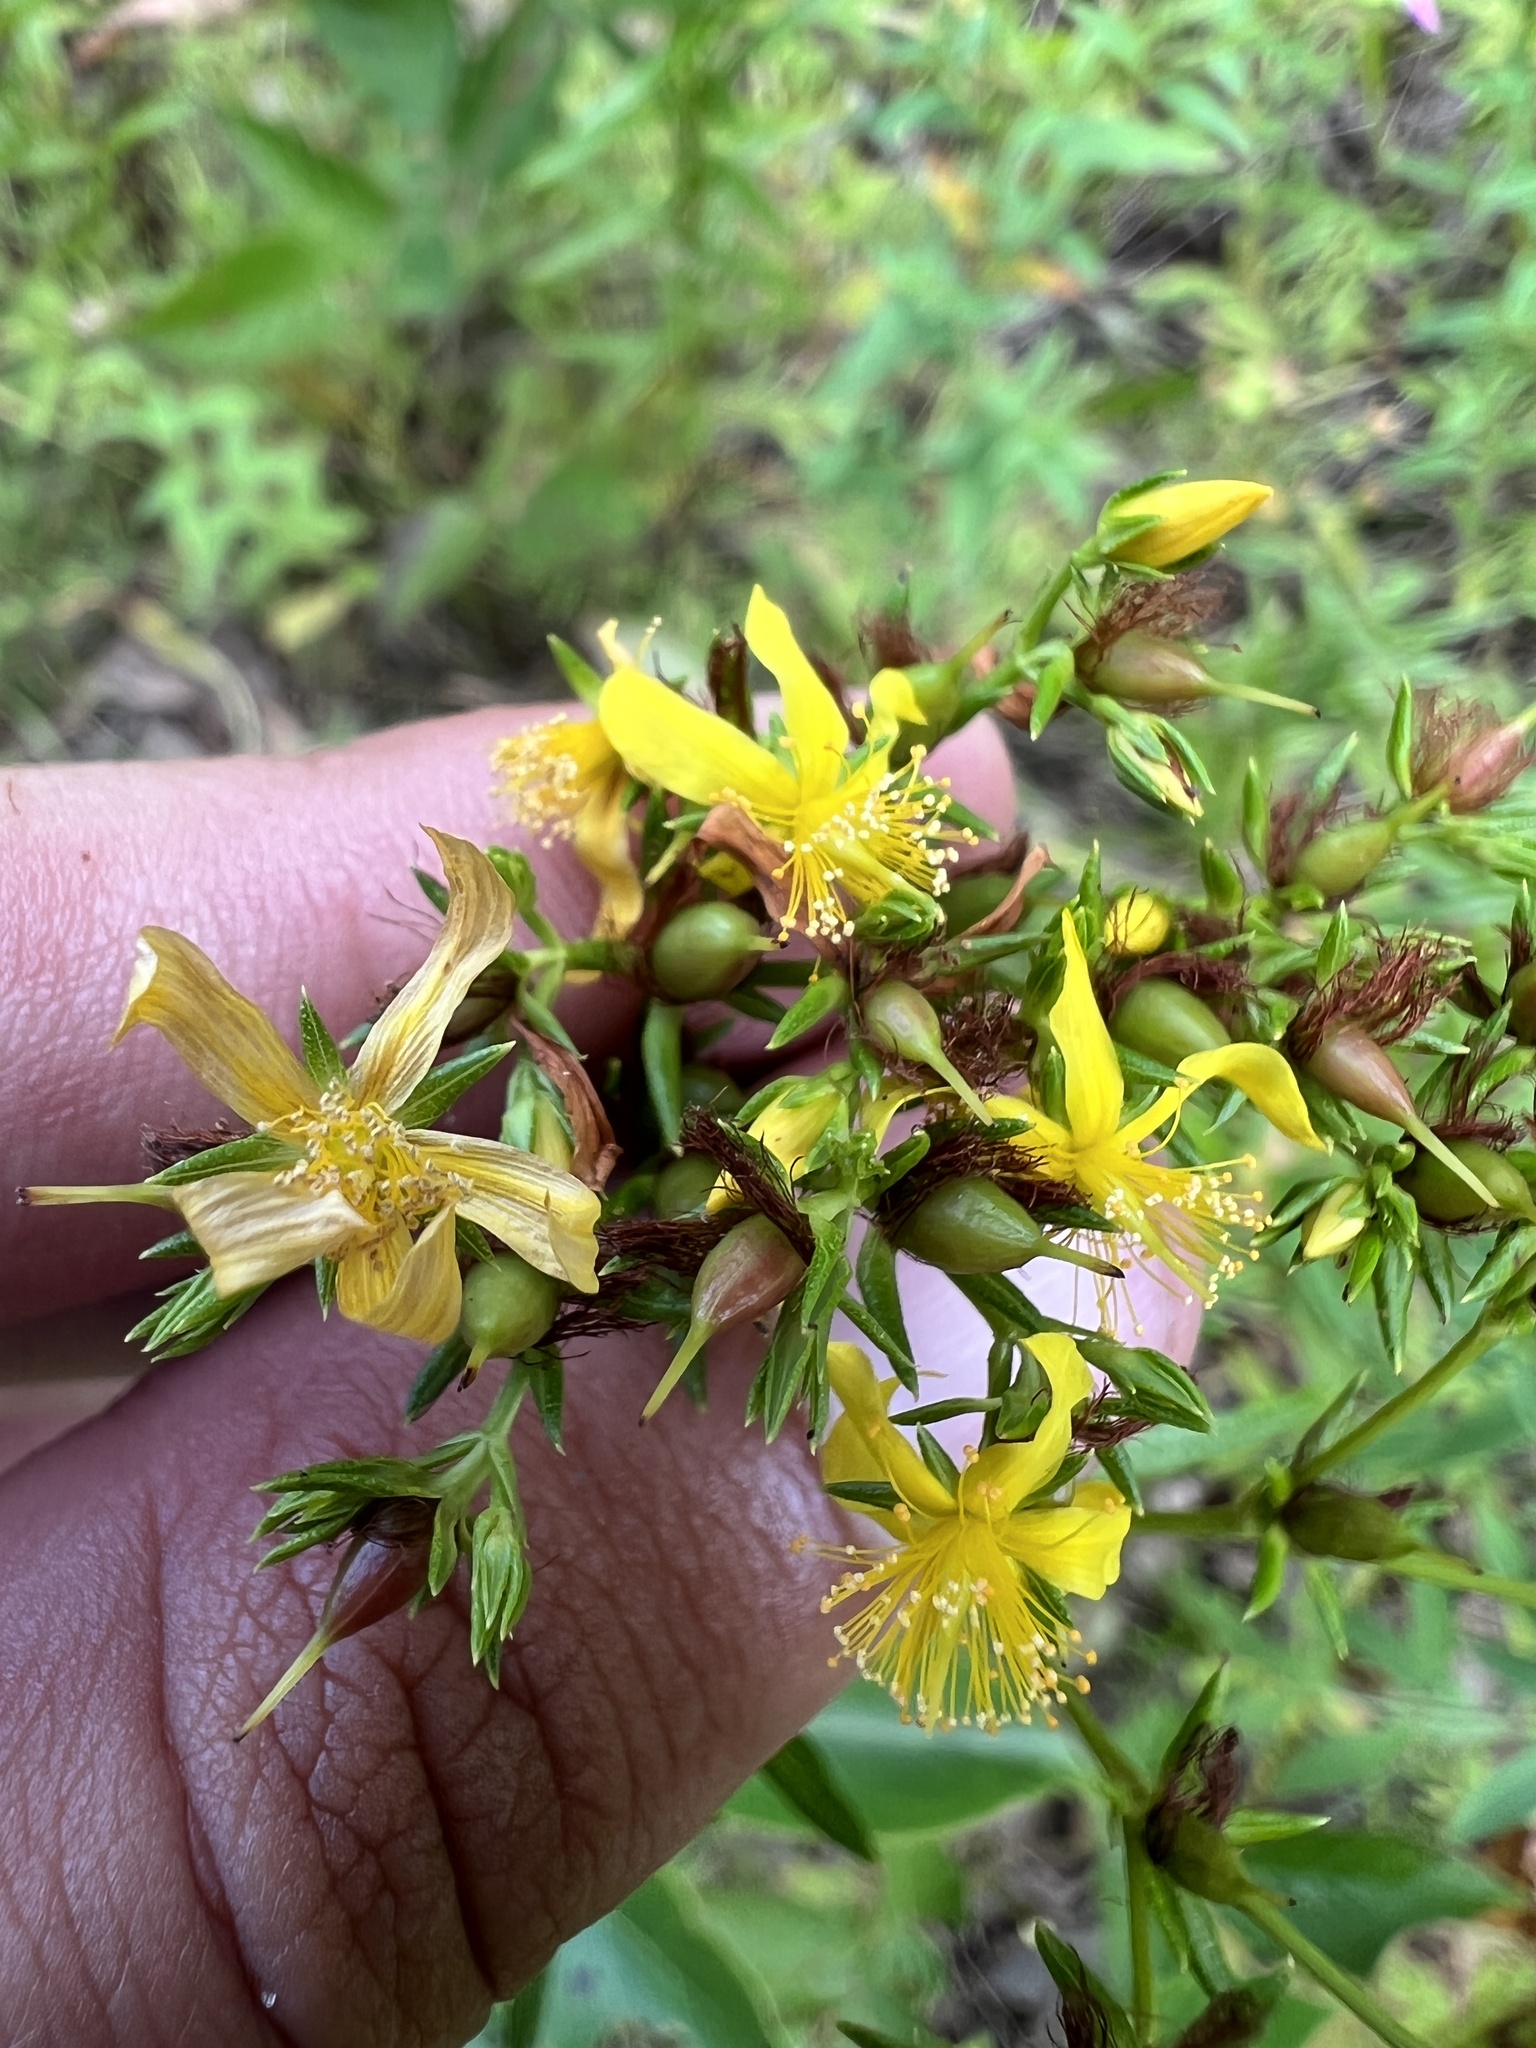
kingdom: Plantae
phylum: Tracheophyta
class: Magnoliopsida
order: Malpighiales
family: Hypericaceae
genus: Hypericum
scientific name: Hypericum adpressum
